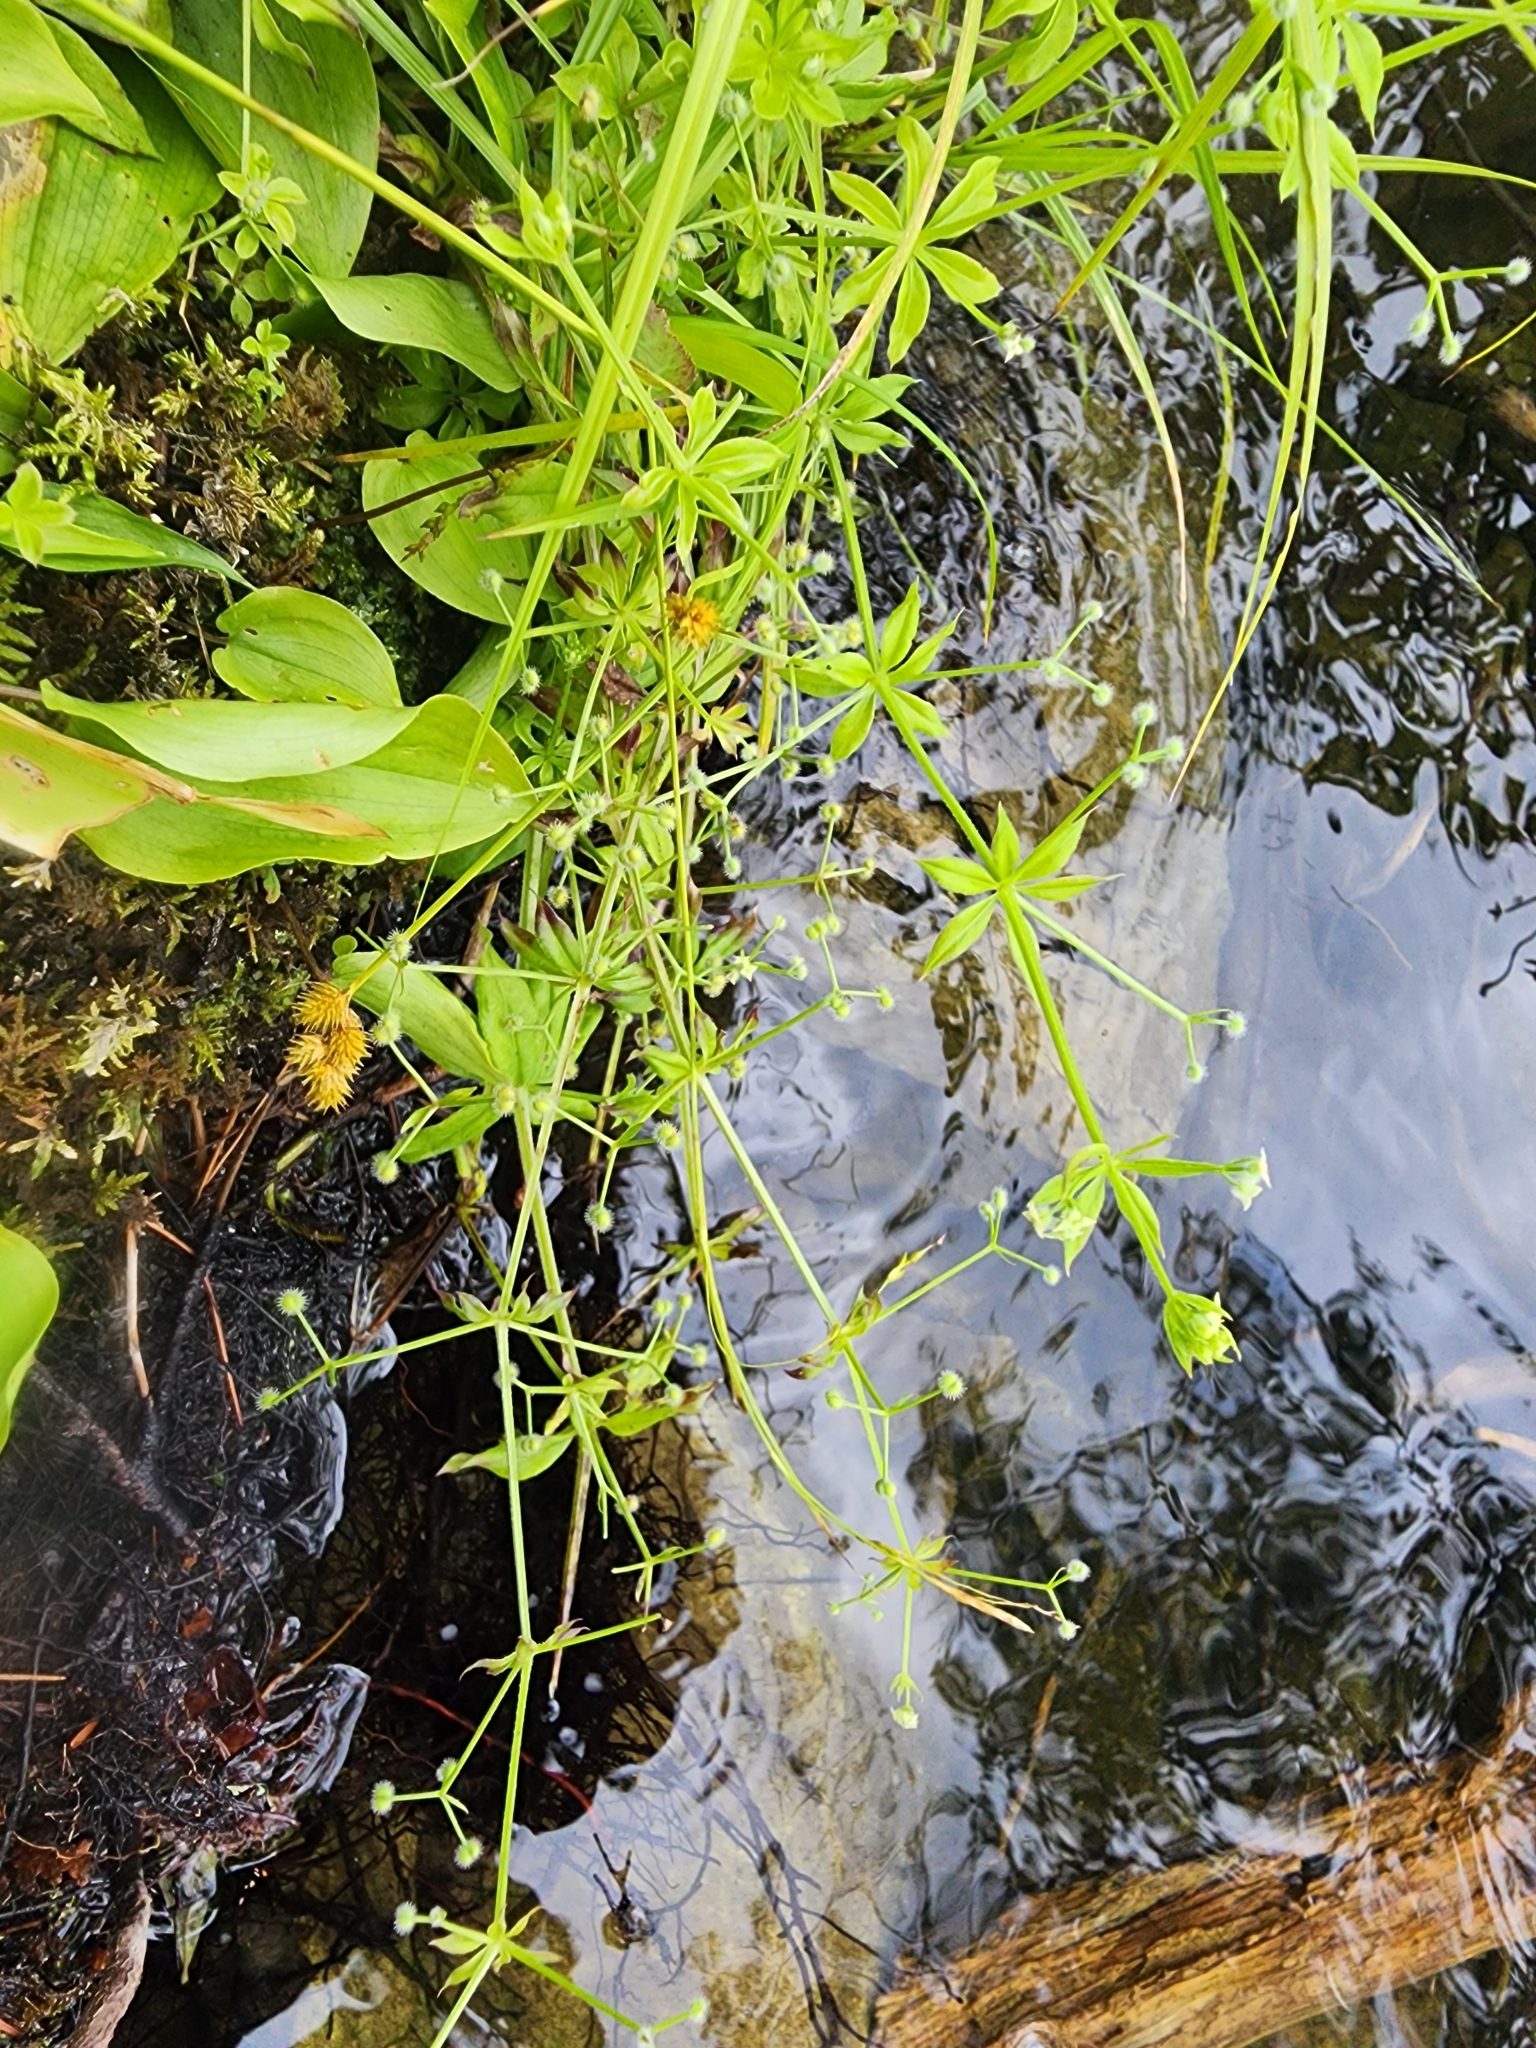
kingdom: Plantae
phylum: Tracheophyta
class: Magnoliopsida
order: Gentianales
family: Rubiaceae
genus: Galium
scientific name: Galium trifidum
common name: Small bedstraw
